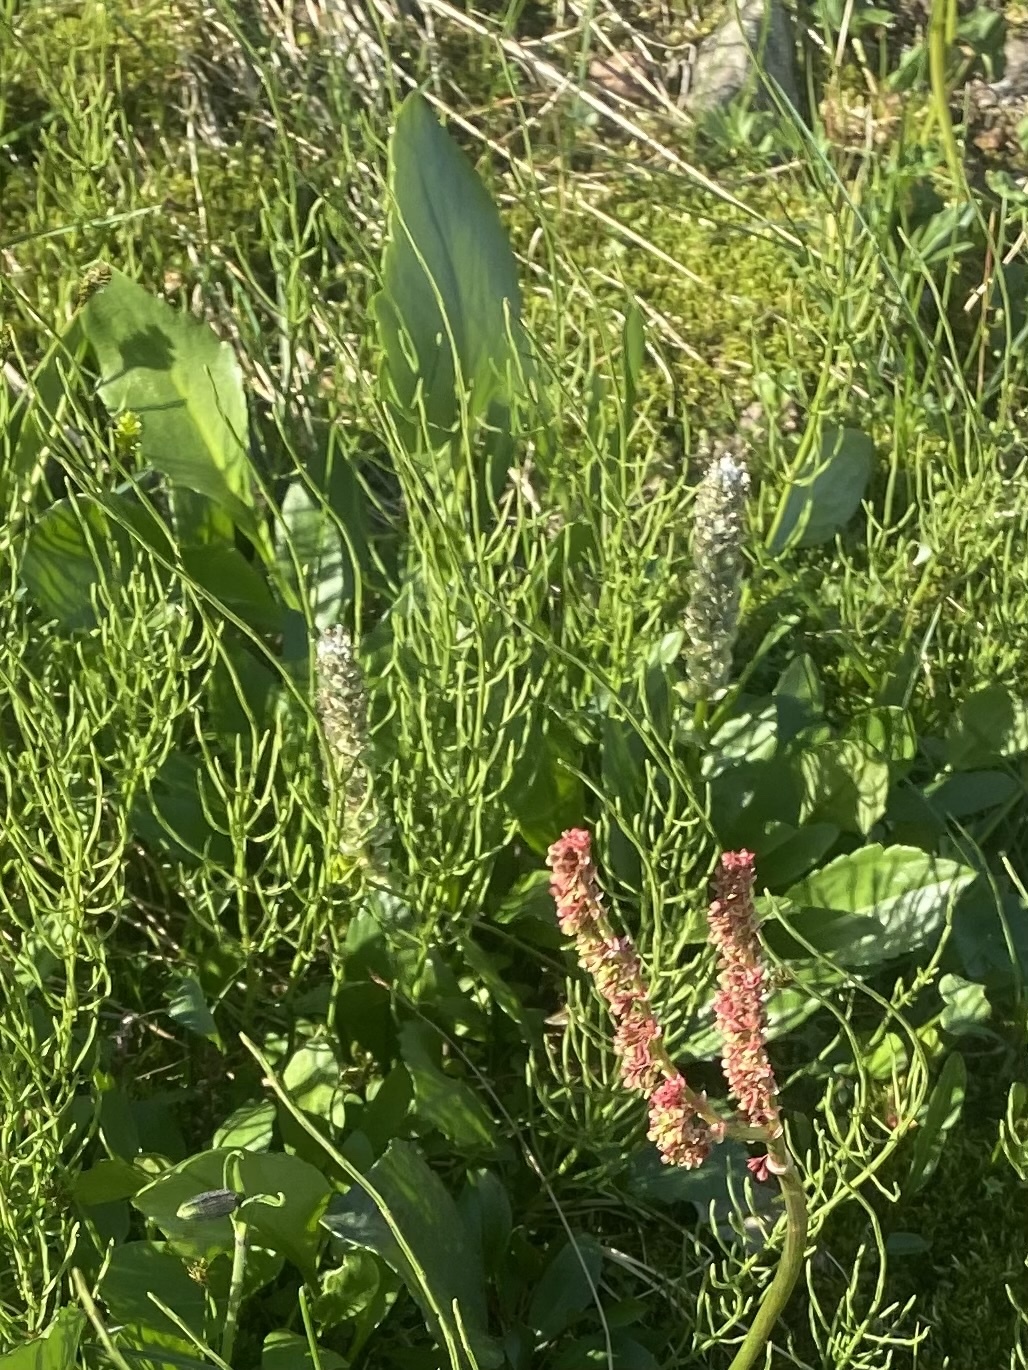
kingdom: Plantae
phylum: Tracheophyta
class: Magnoliopsida
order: Lamiales
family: Plantaginaceae
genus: Lagotis
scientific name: Lagotis glauca
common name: Glaucous weaselsnout
